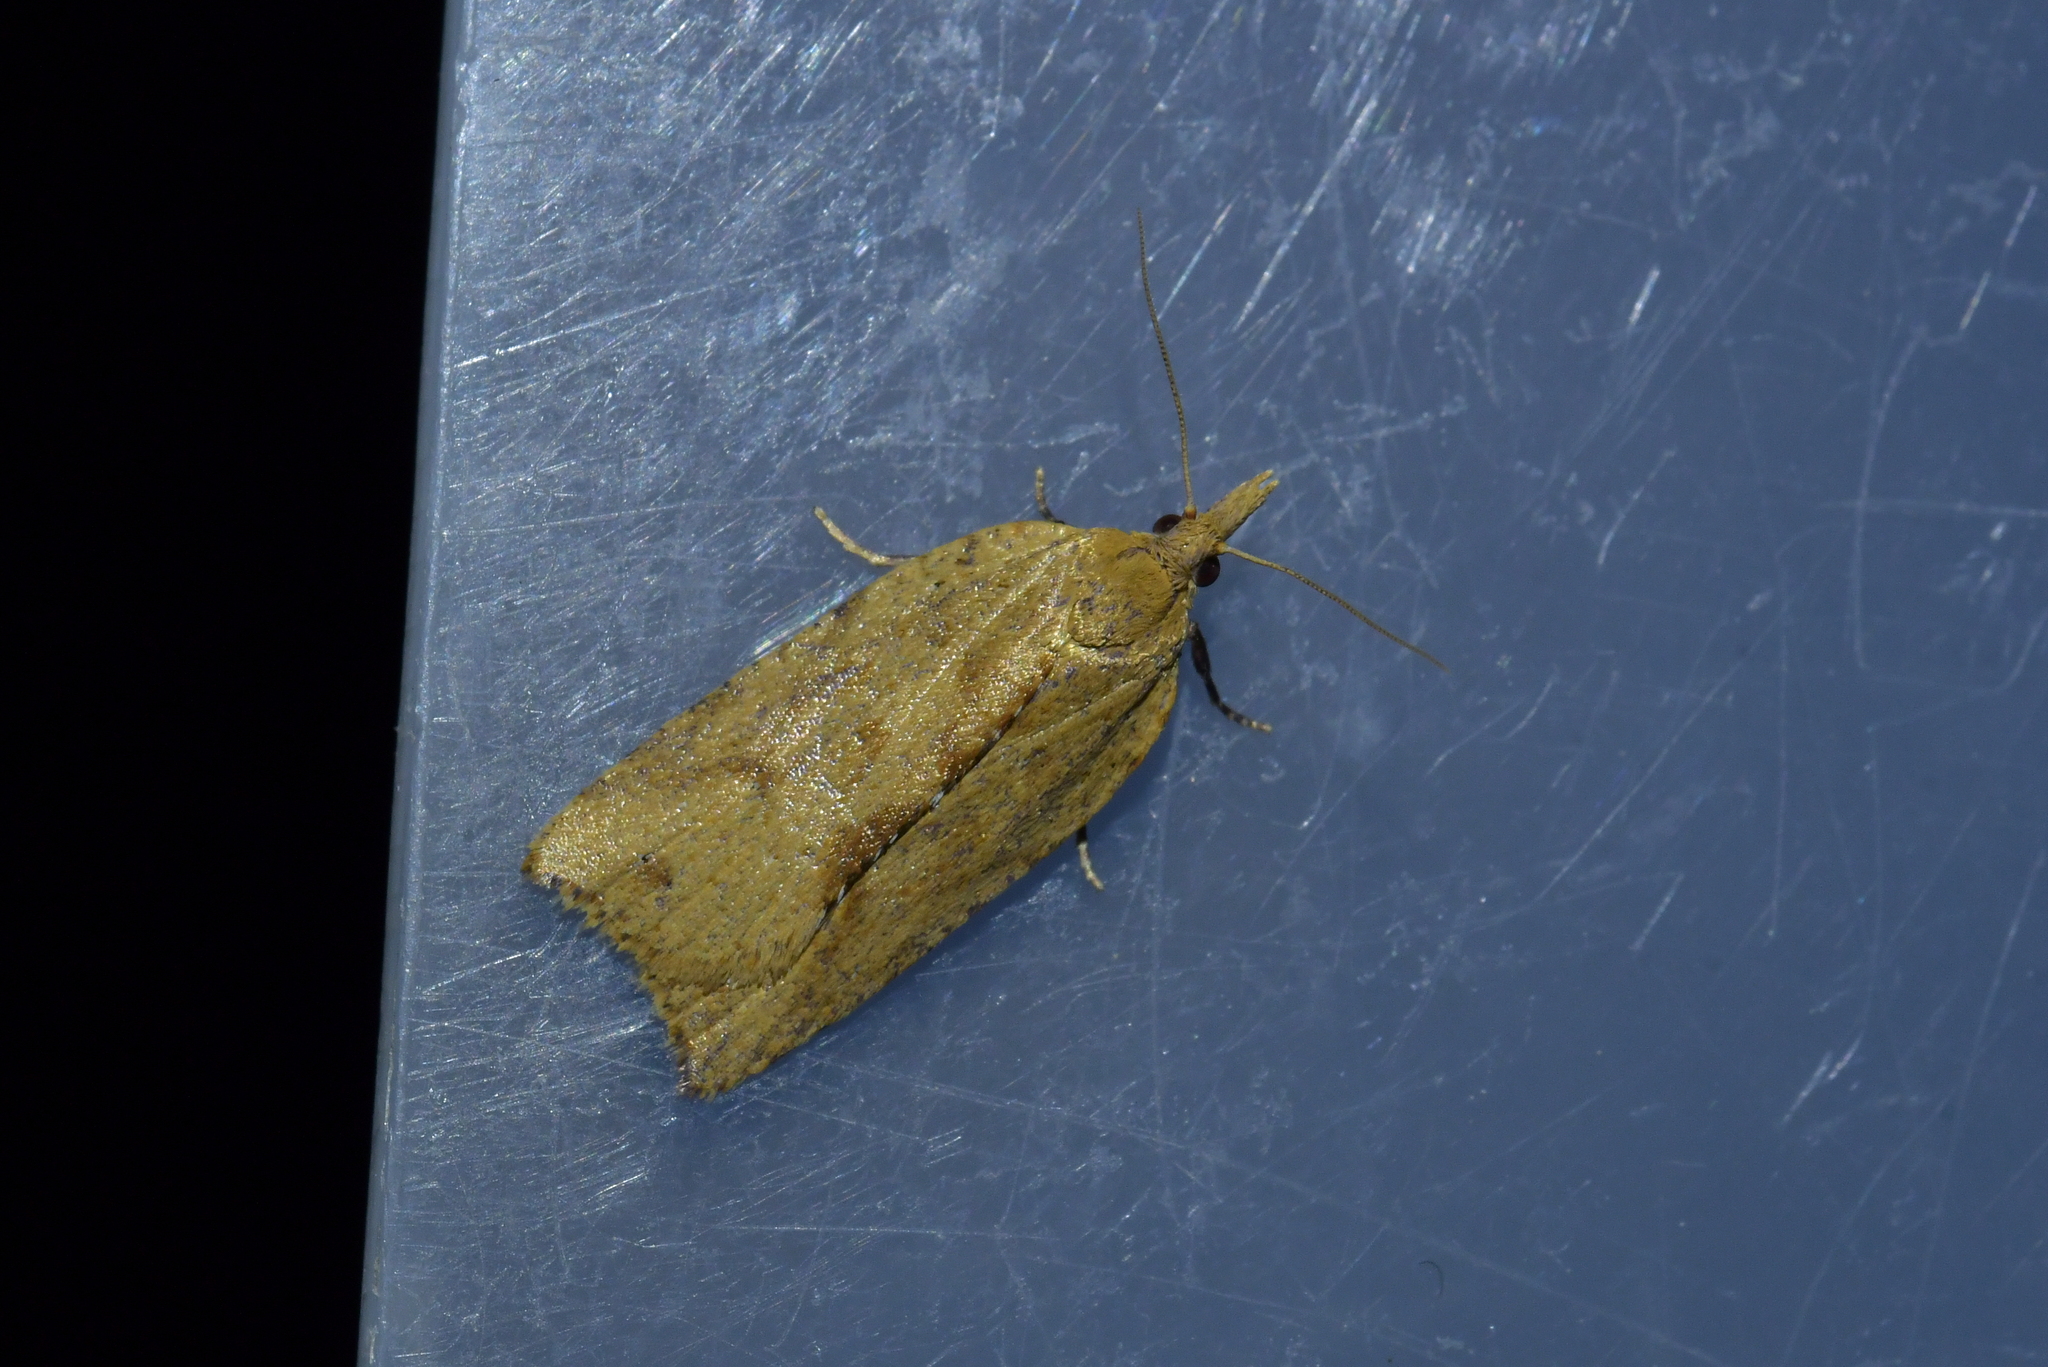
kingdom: Animalia
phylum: Arthropoda
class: Insecta
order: Lepidoptera
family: Tortricidae
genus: Epiphyas
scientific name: Epiphyas postvittana
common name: Light brown apple moth
